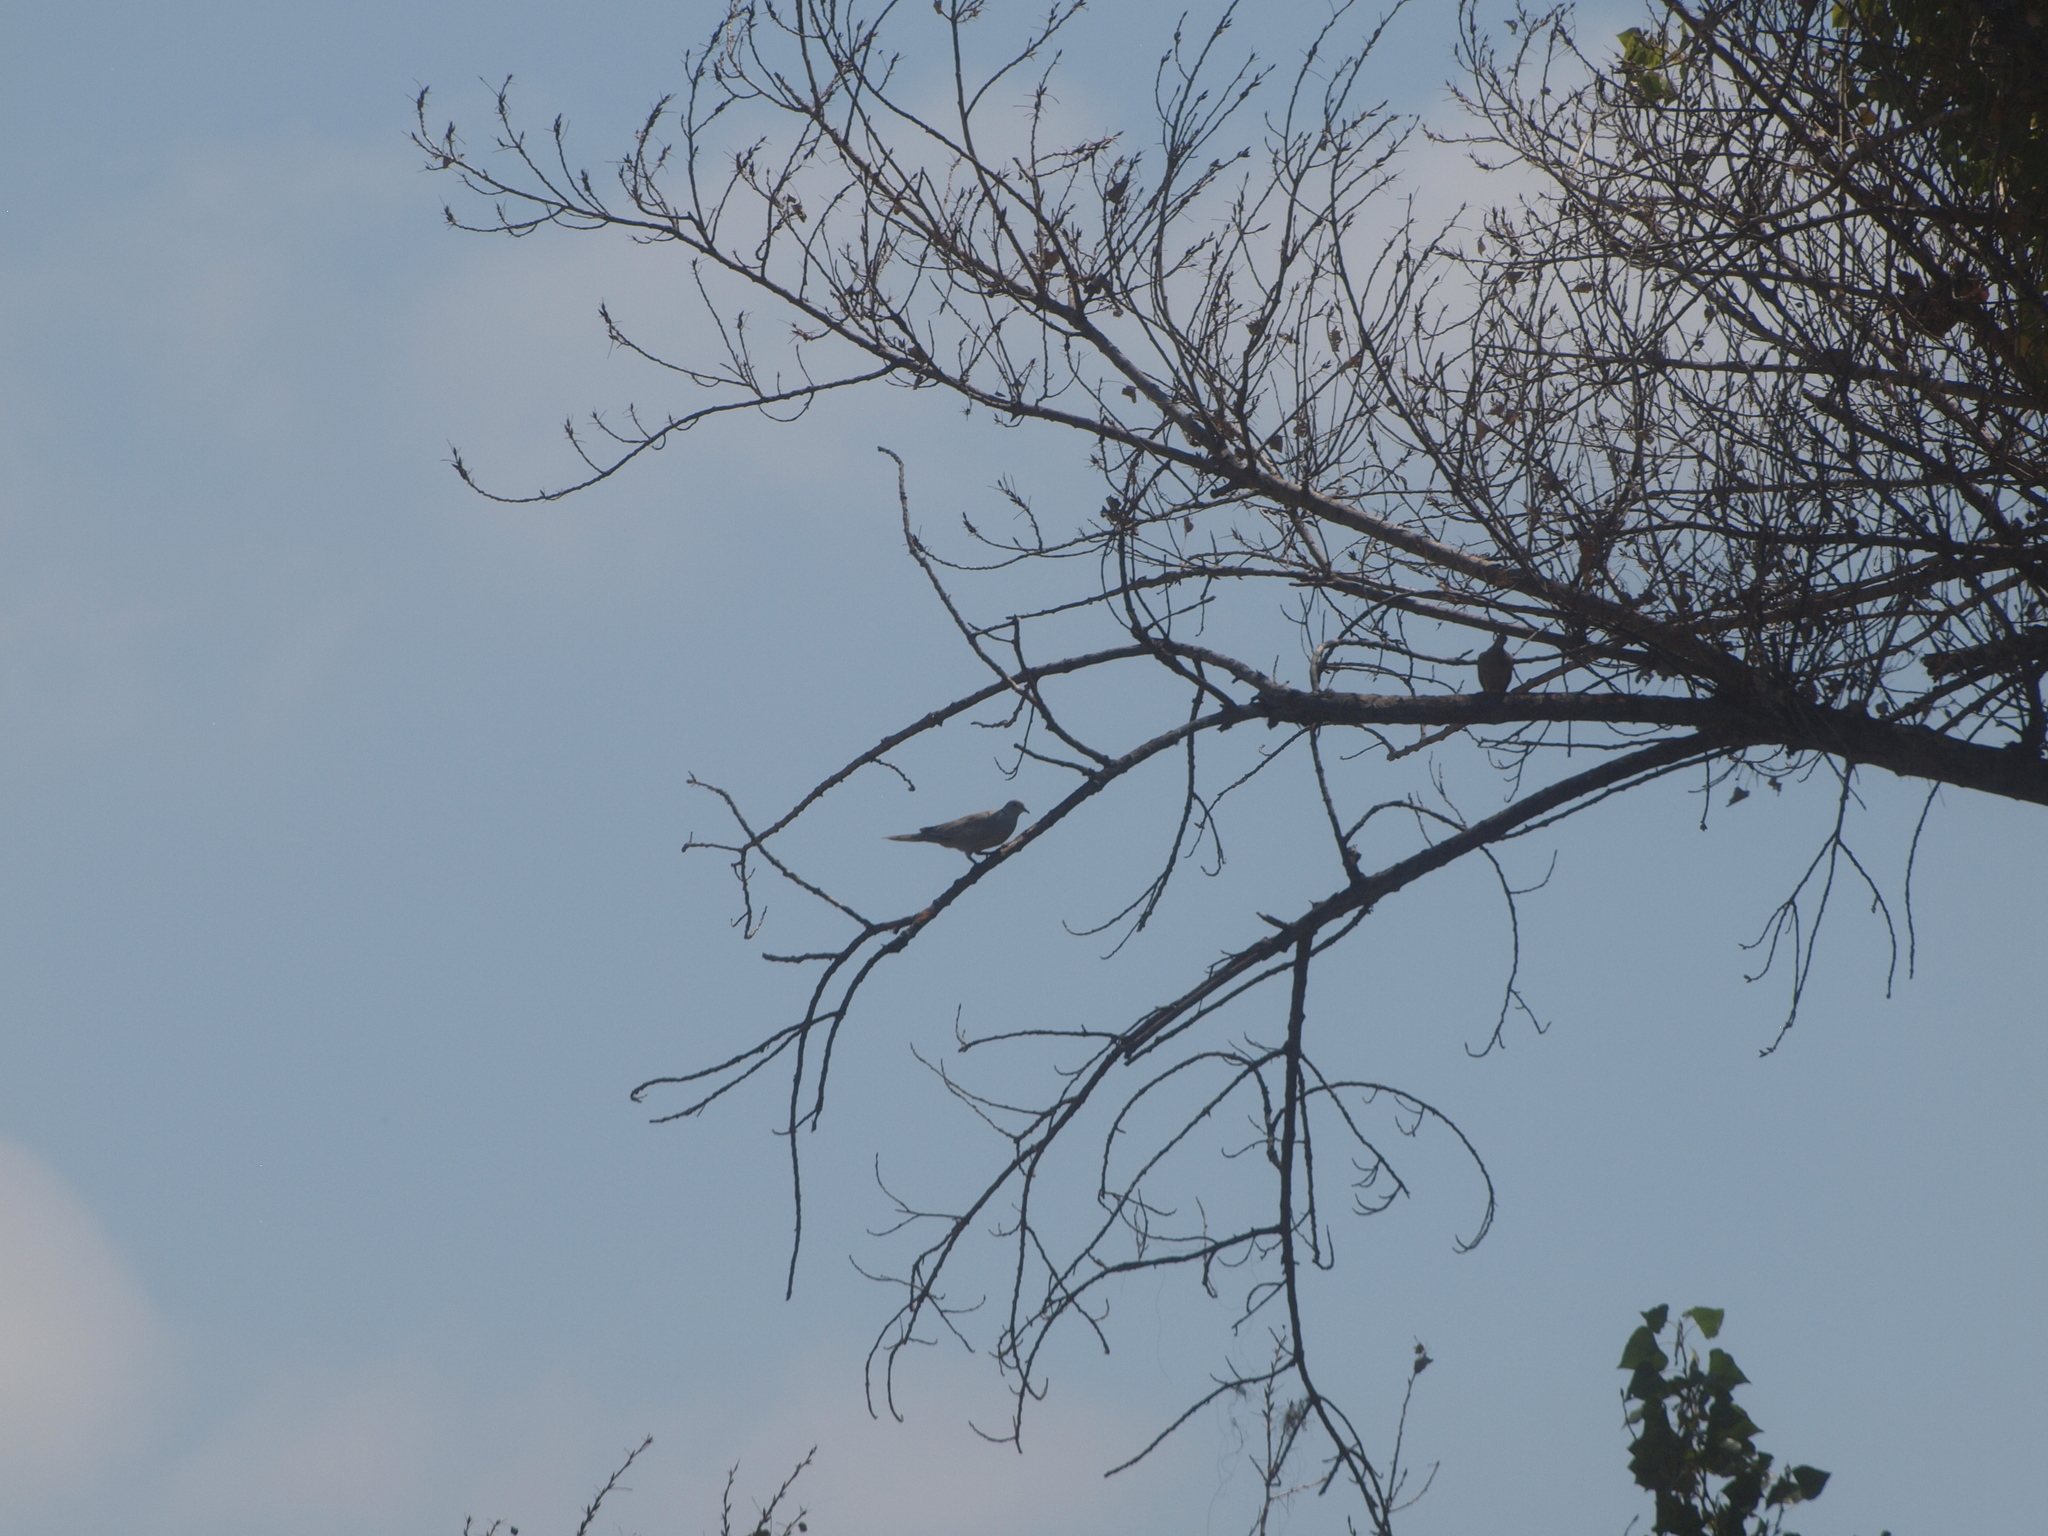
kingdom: Animalia
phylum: Chordata
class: Aves
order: Columbiformes
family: Columbidae
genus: Streptopelia
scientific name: Streptopelia decaocto
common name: Eurasian collared dove
